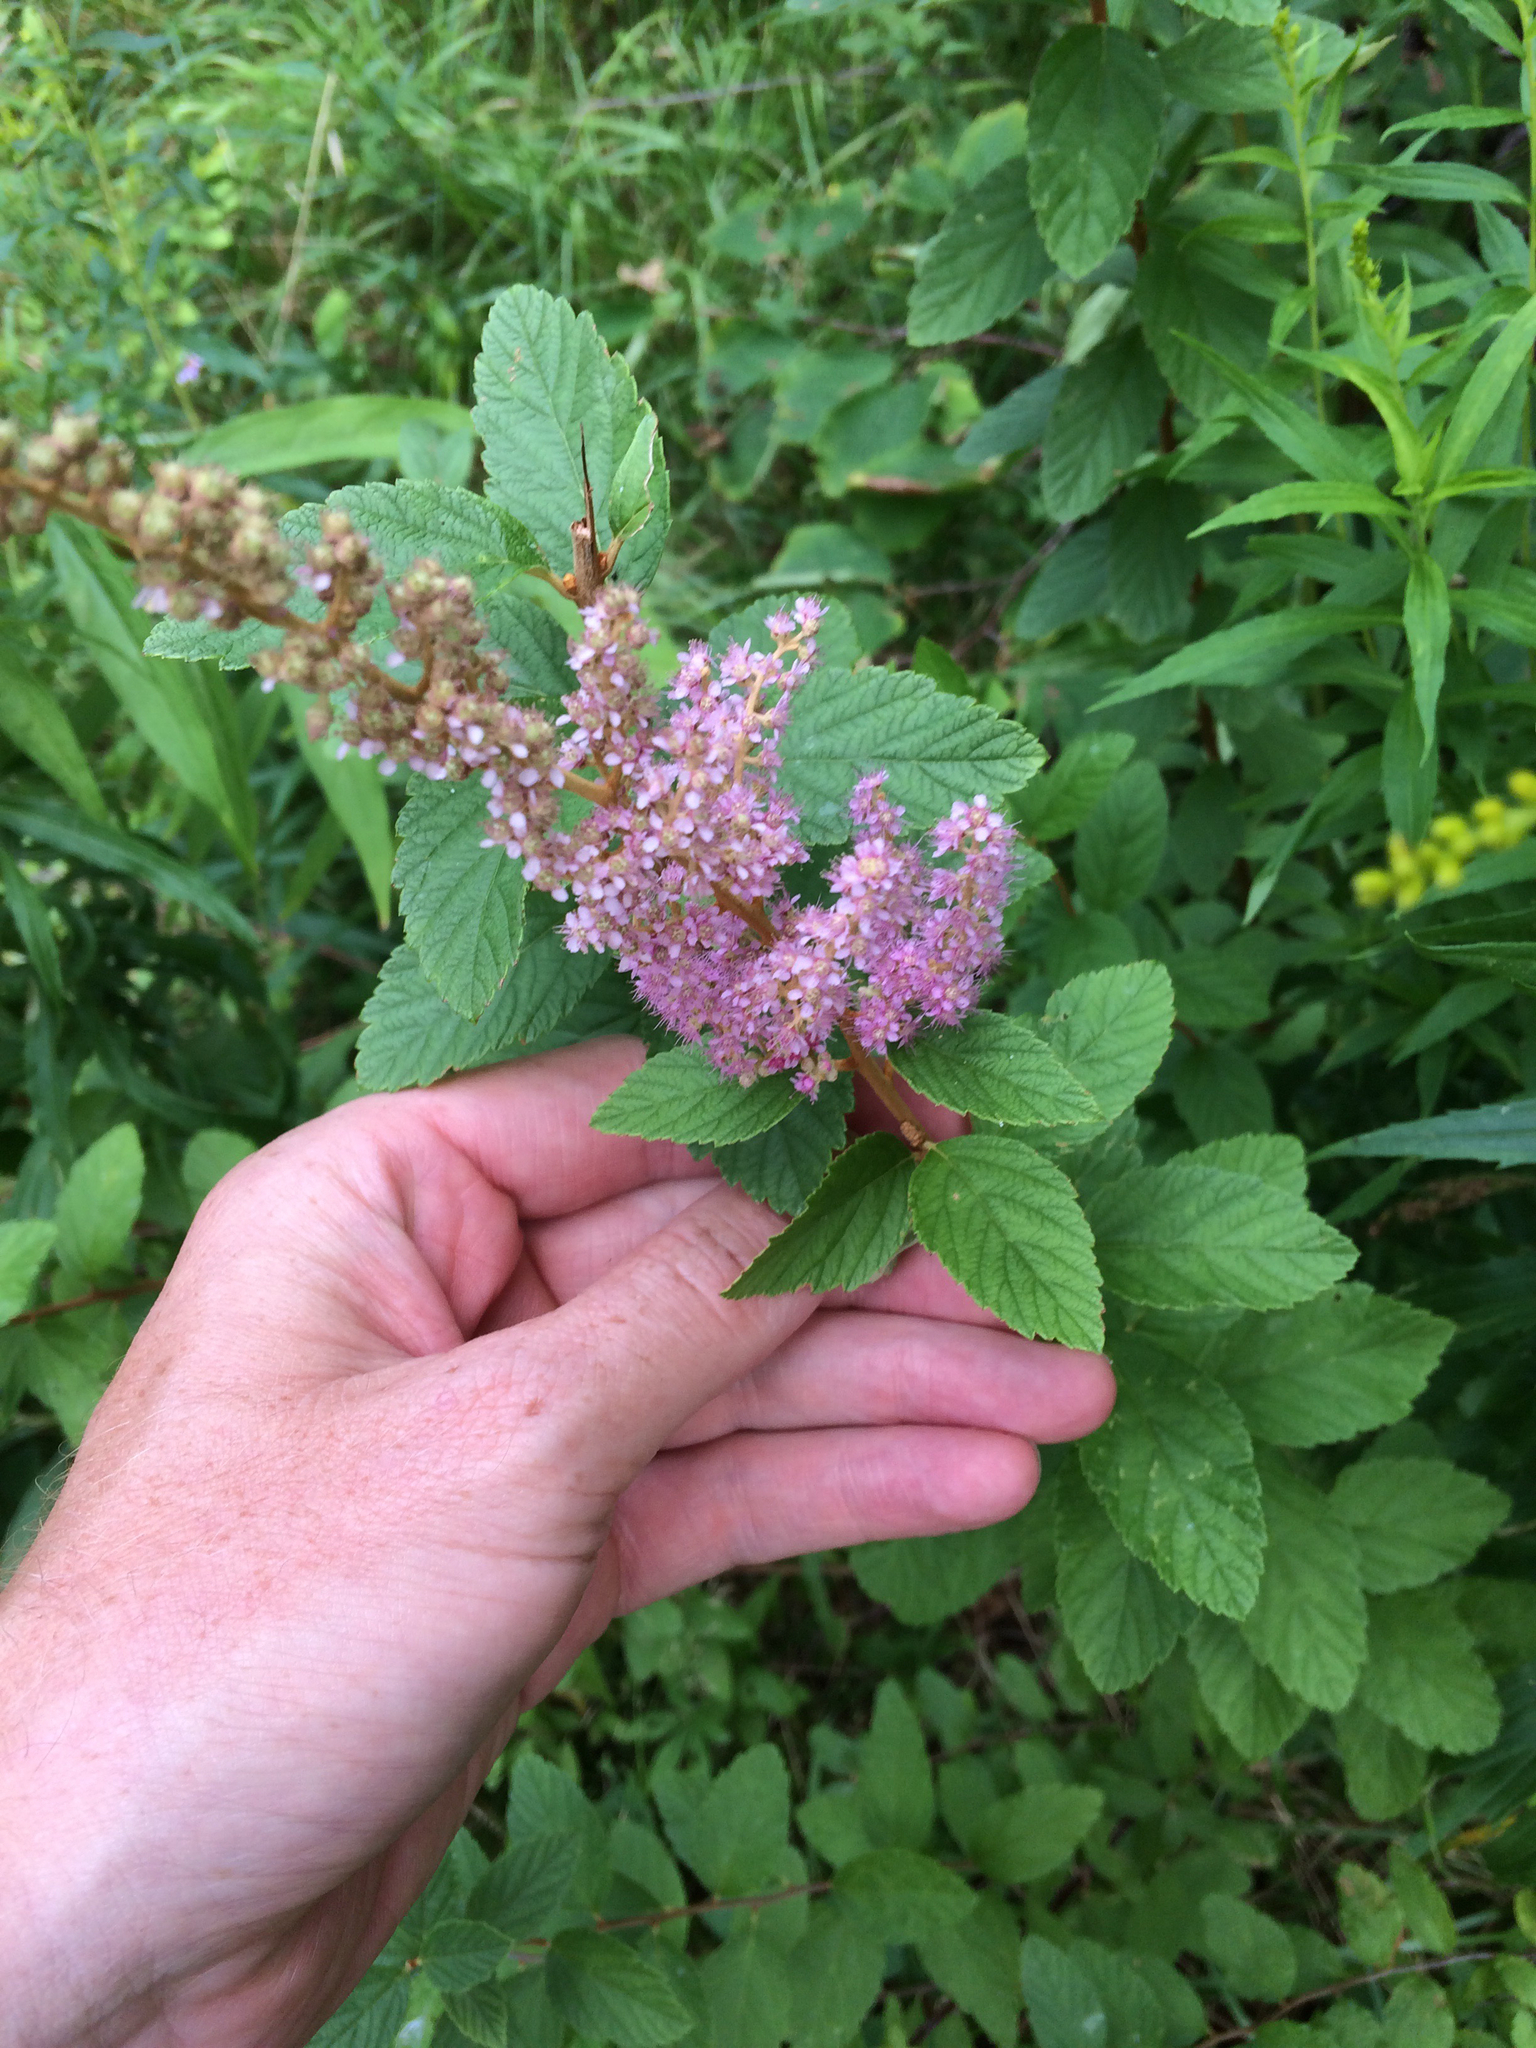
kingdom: Plantae
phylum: Tracheophyta
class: Magnoliopsida
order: Rosales
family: Rosaceae
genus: Spiraea
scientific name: Spiraea tomentosa
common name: Hardhack
